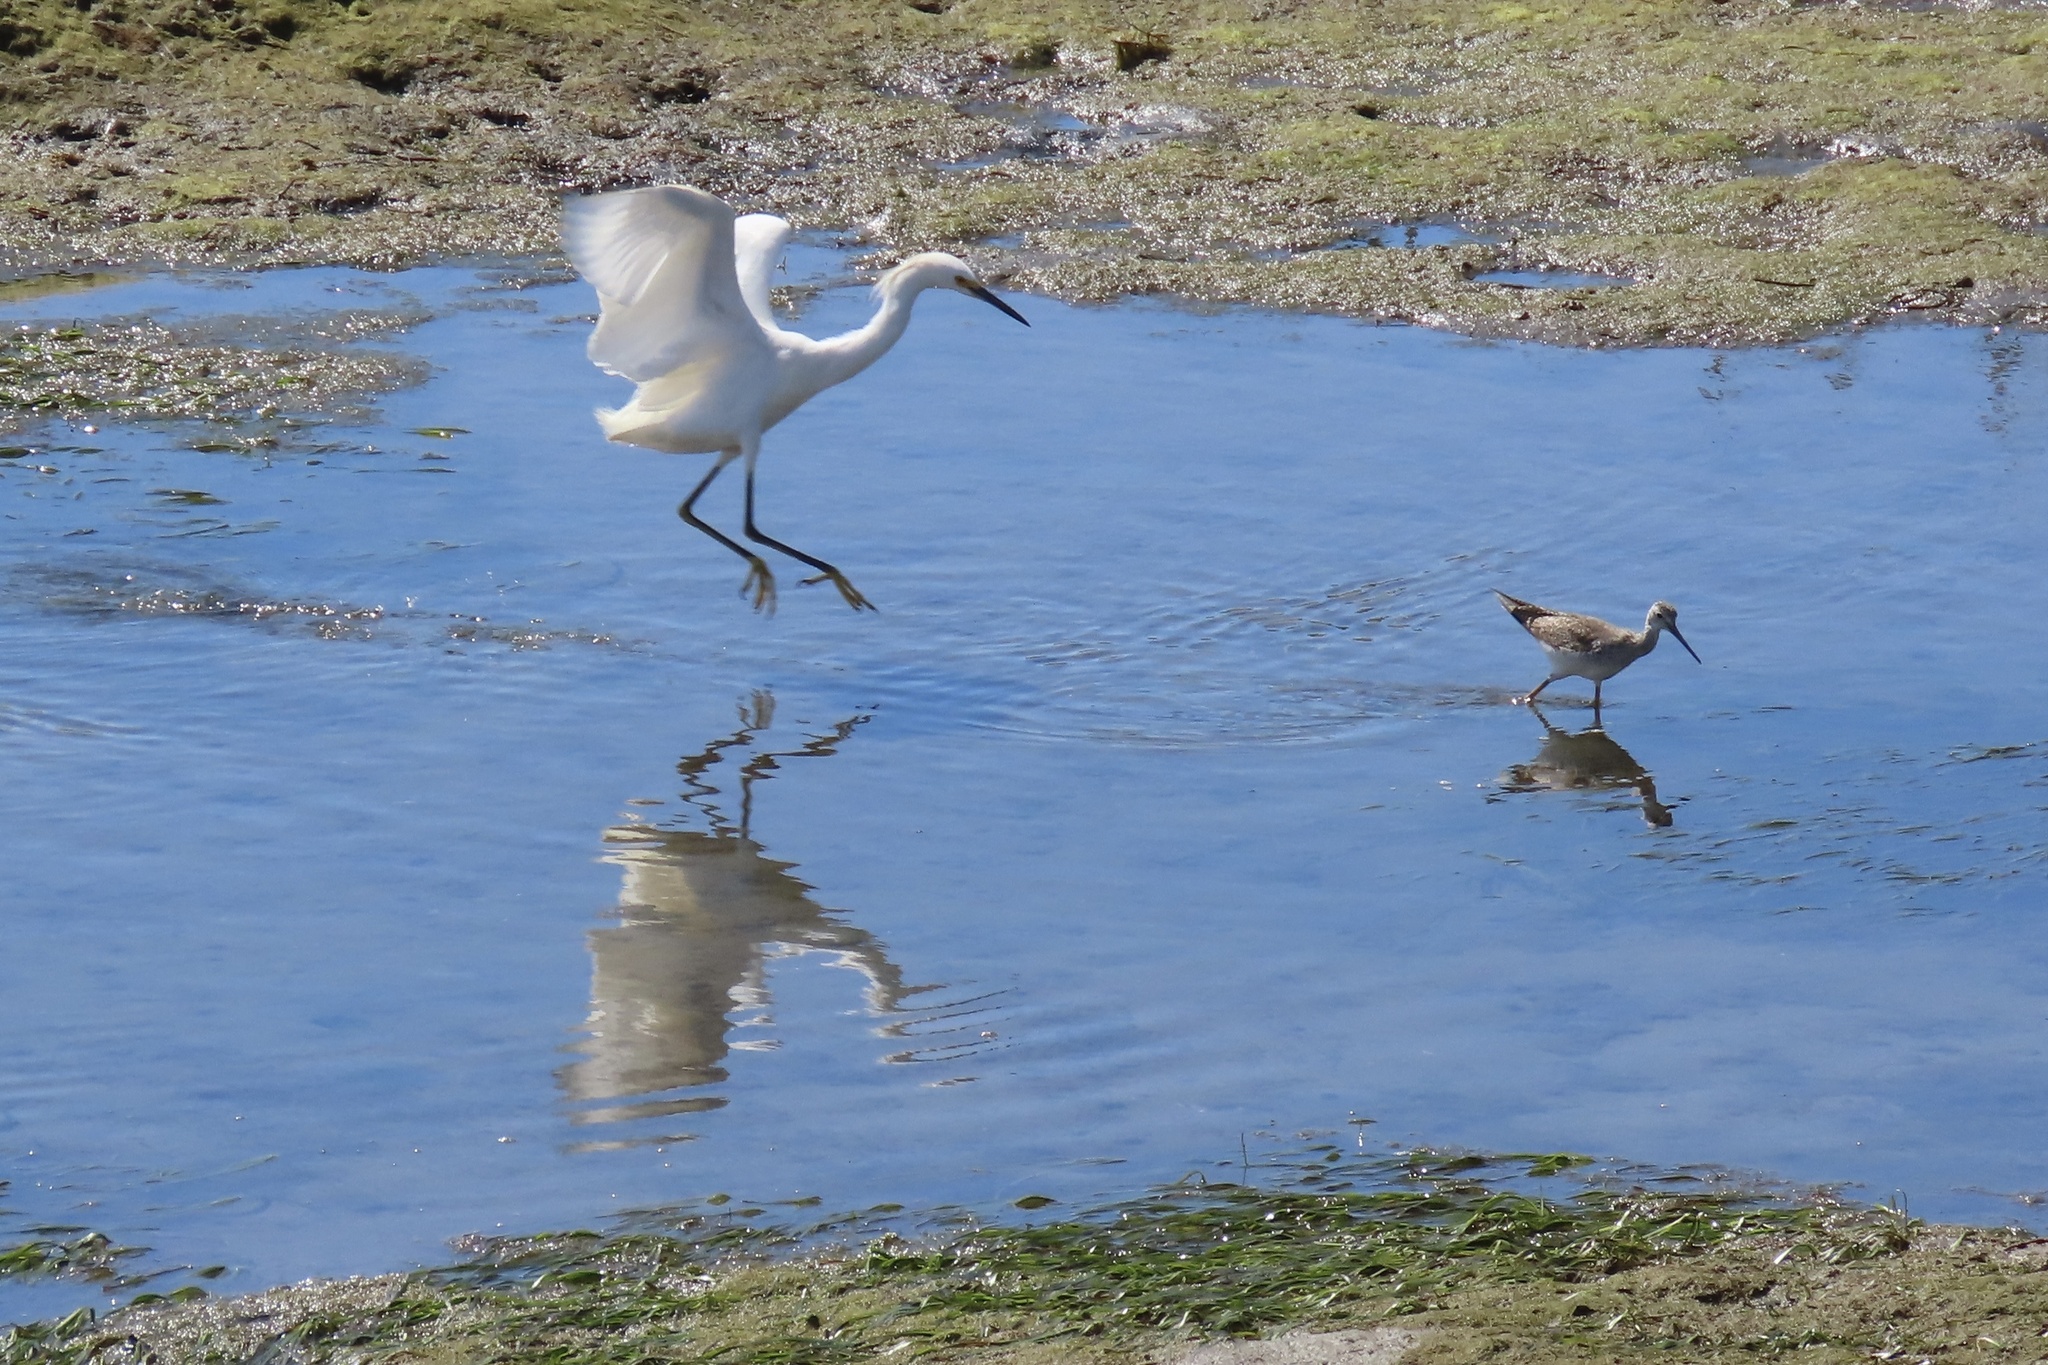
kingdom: Animalia
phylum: Chordata
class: Aves
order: Pelecaniformes
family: Ardeidae
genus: Egretta
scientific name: Egretta thula
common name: Snowy egret
